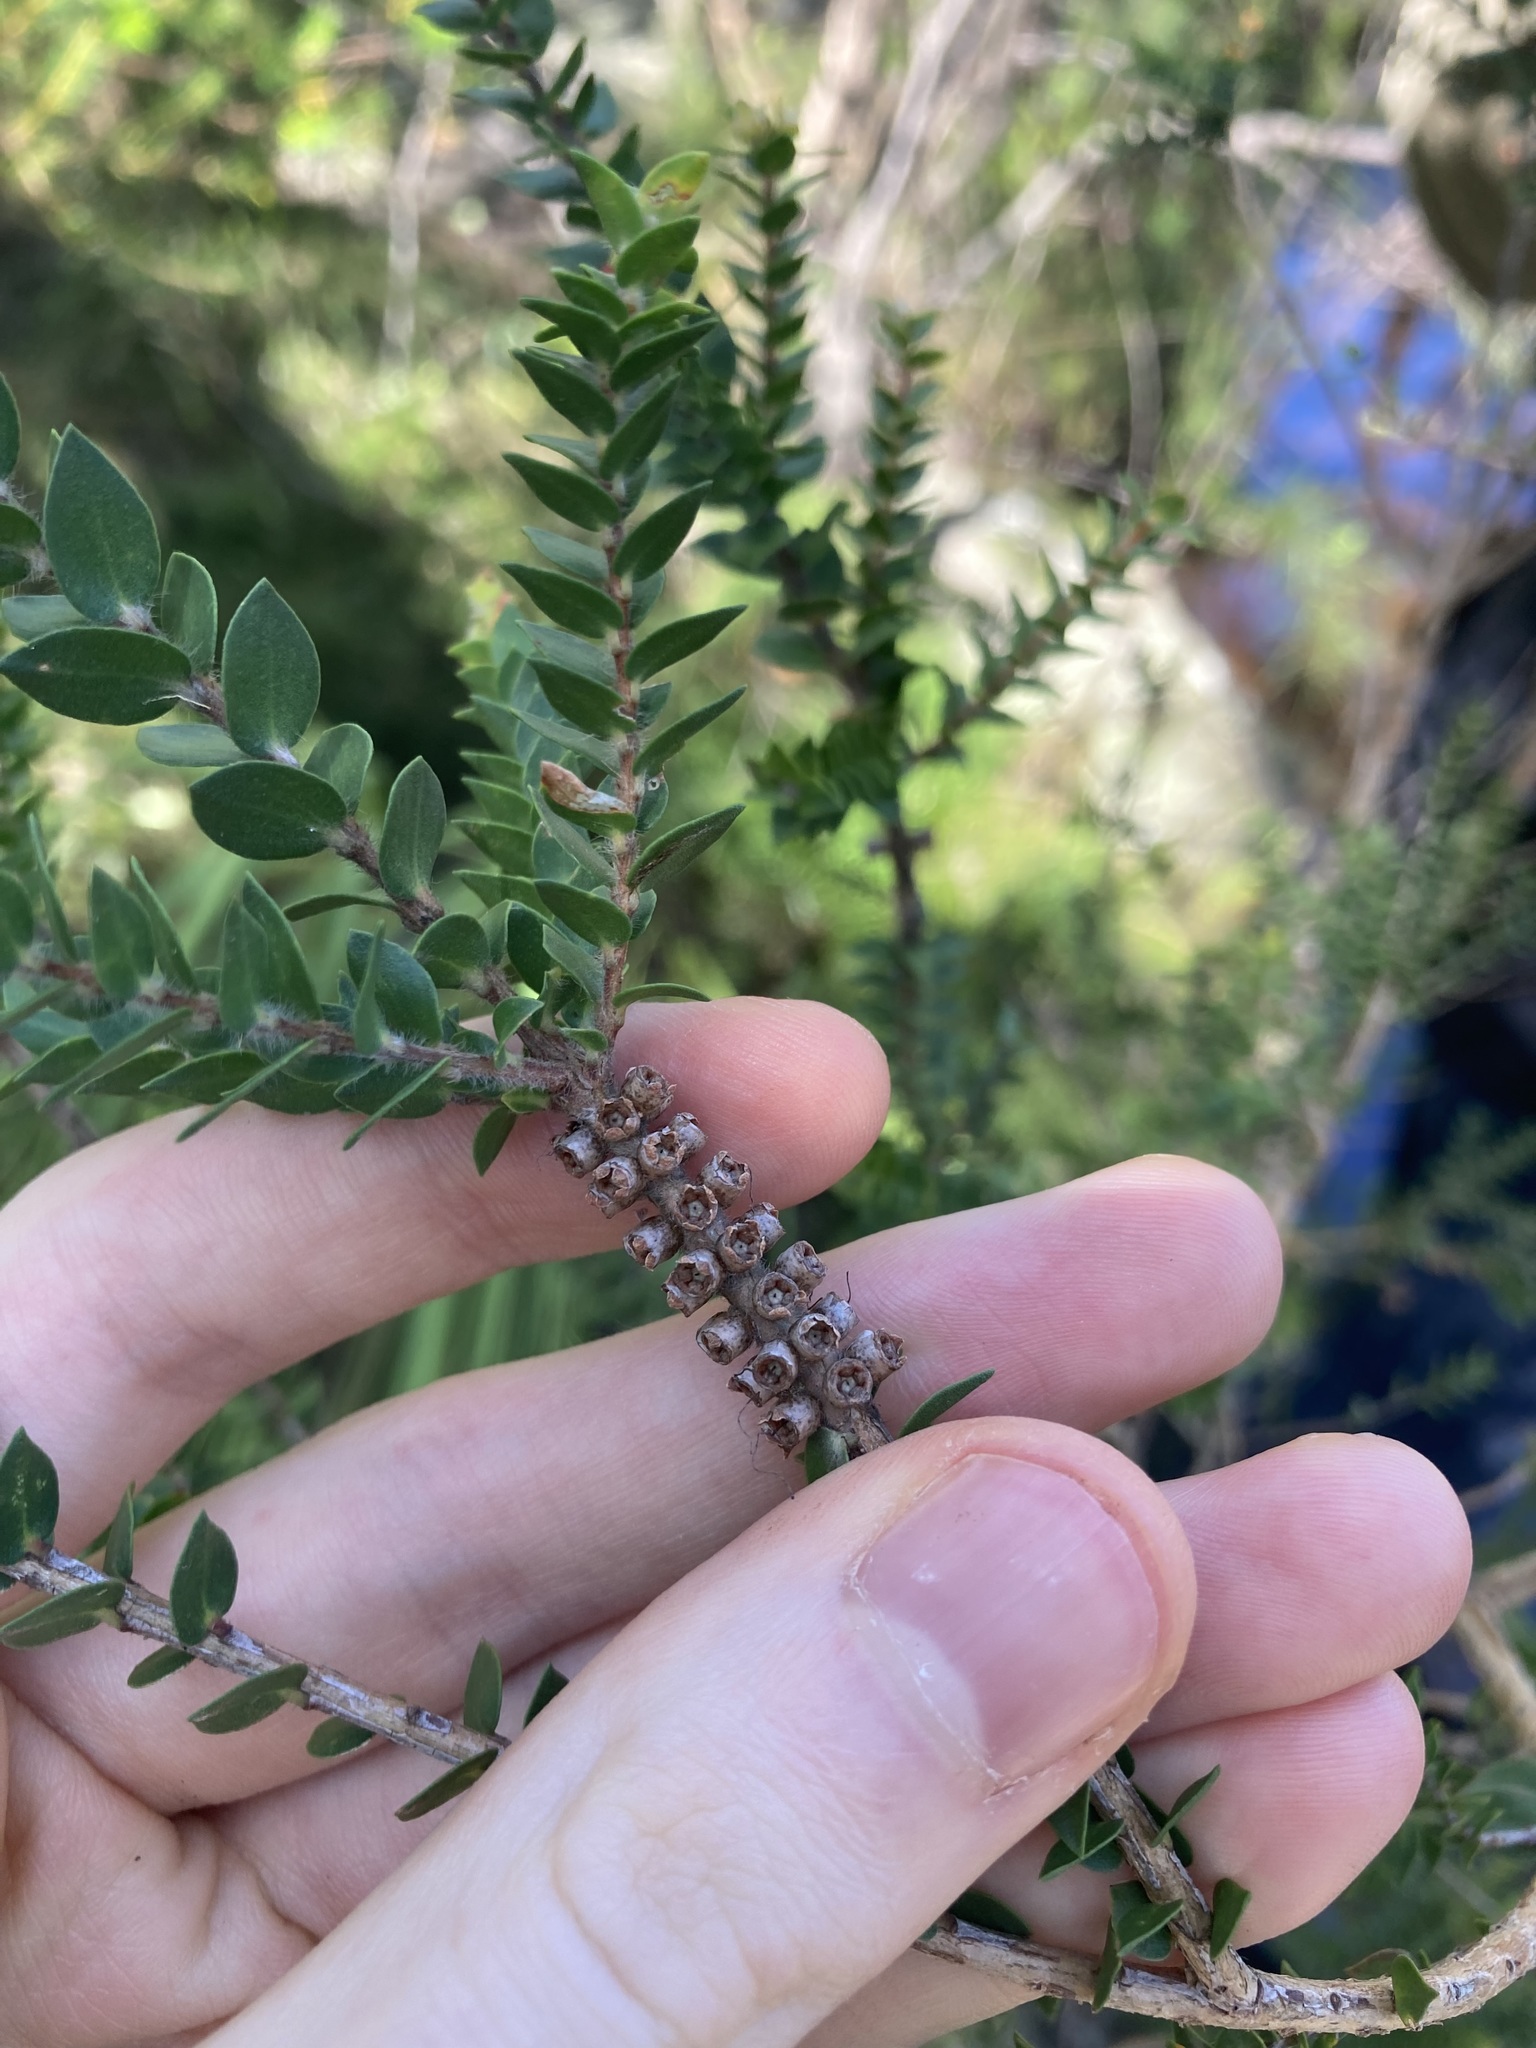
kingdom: Plantae
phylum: Tracheophyta
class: Magnoliopsida
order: Myrtales
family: Myrtaceae
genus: Melaleuca
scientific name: Melaleuca squarrosa
